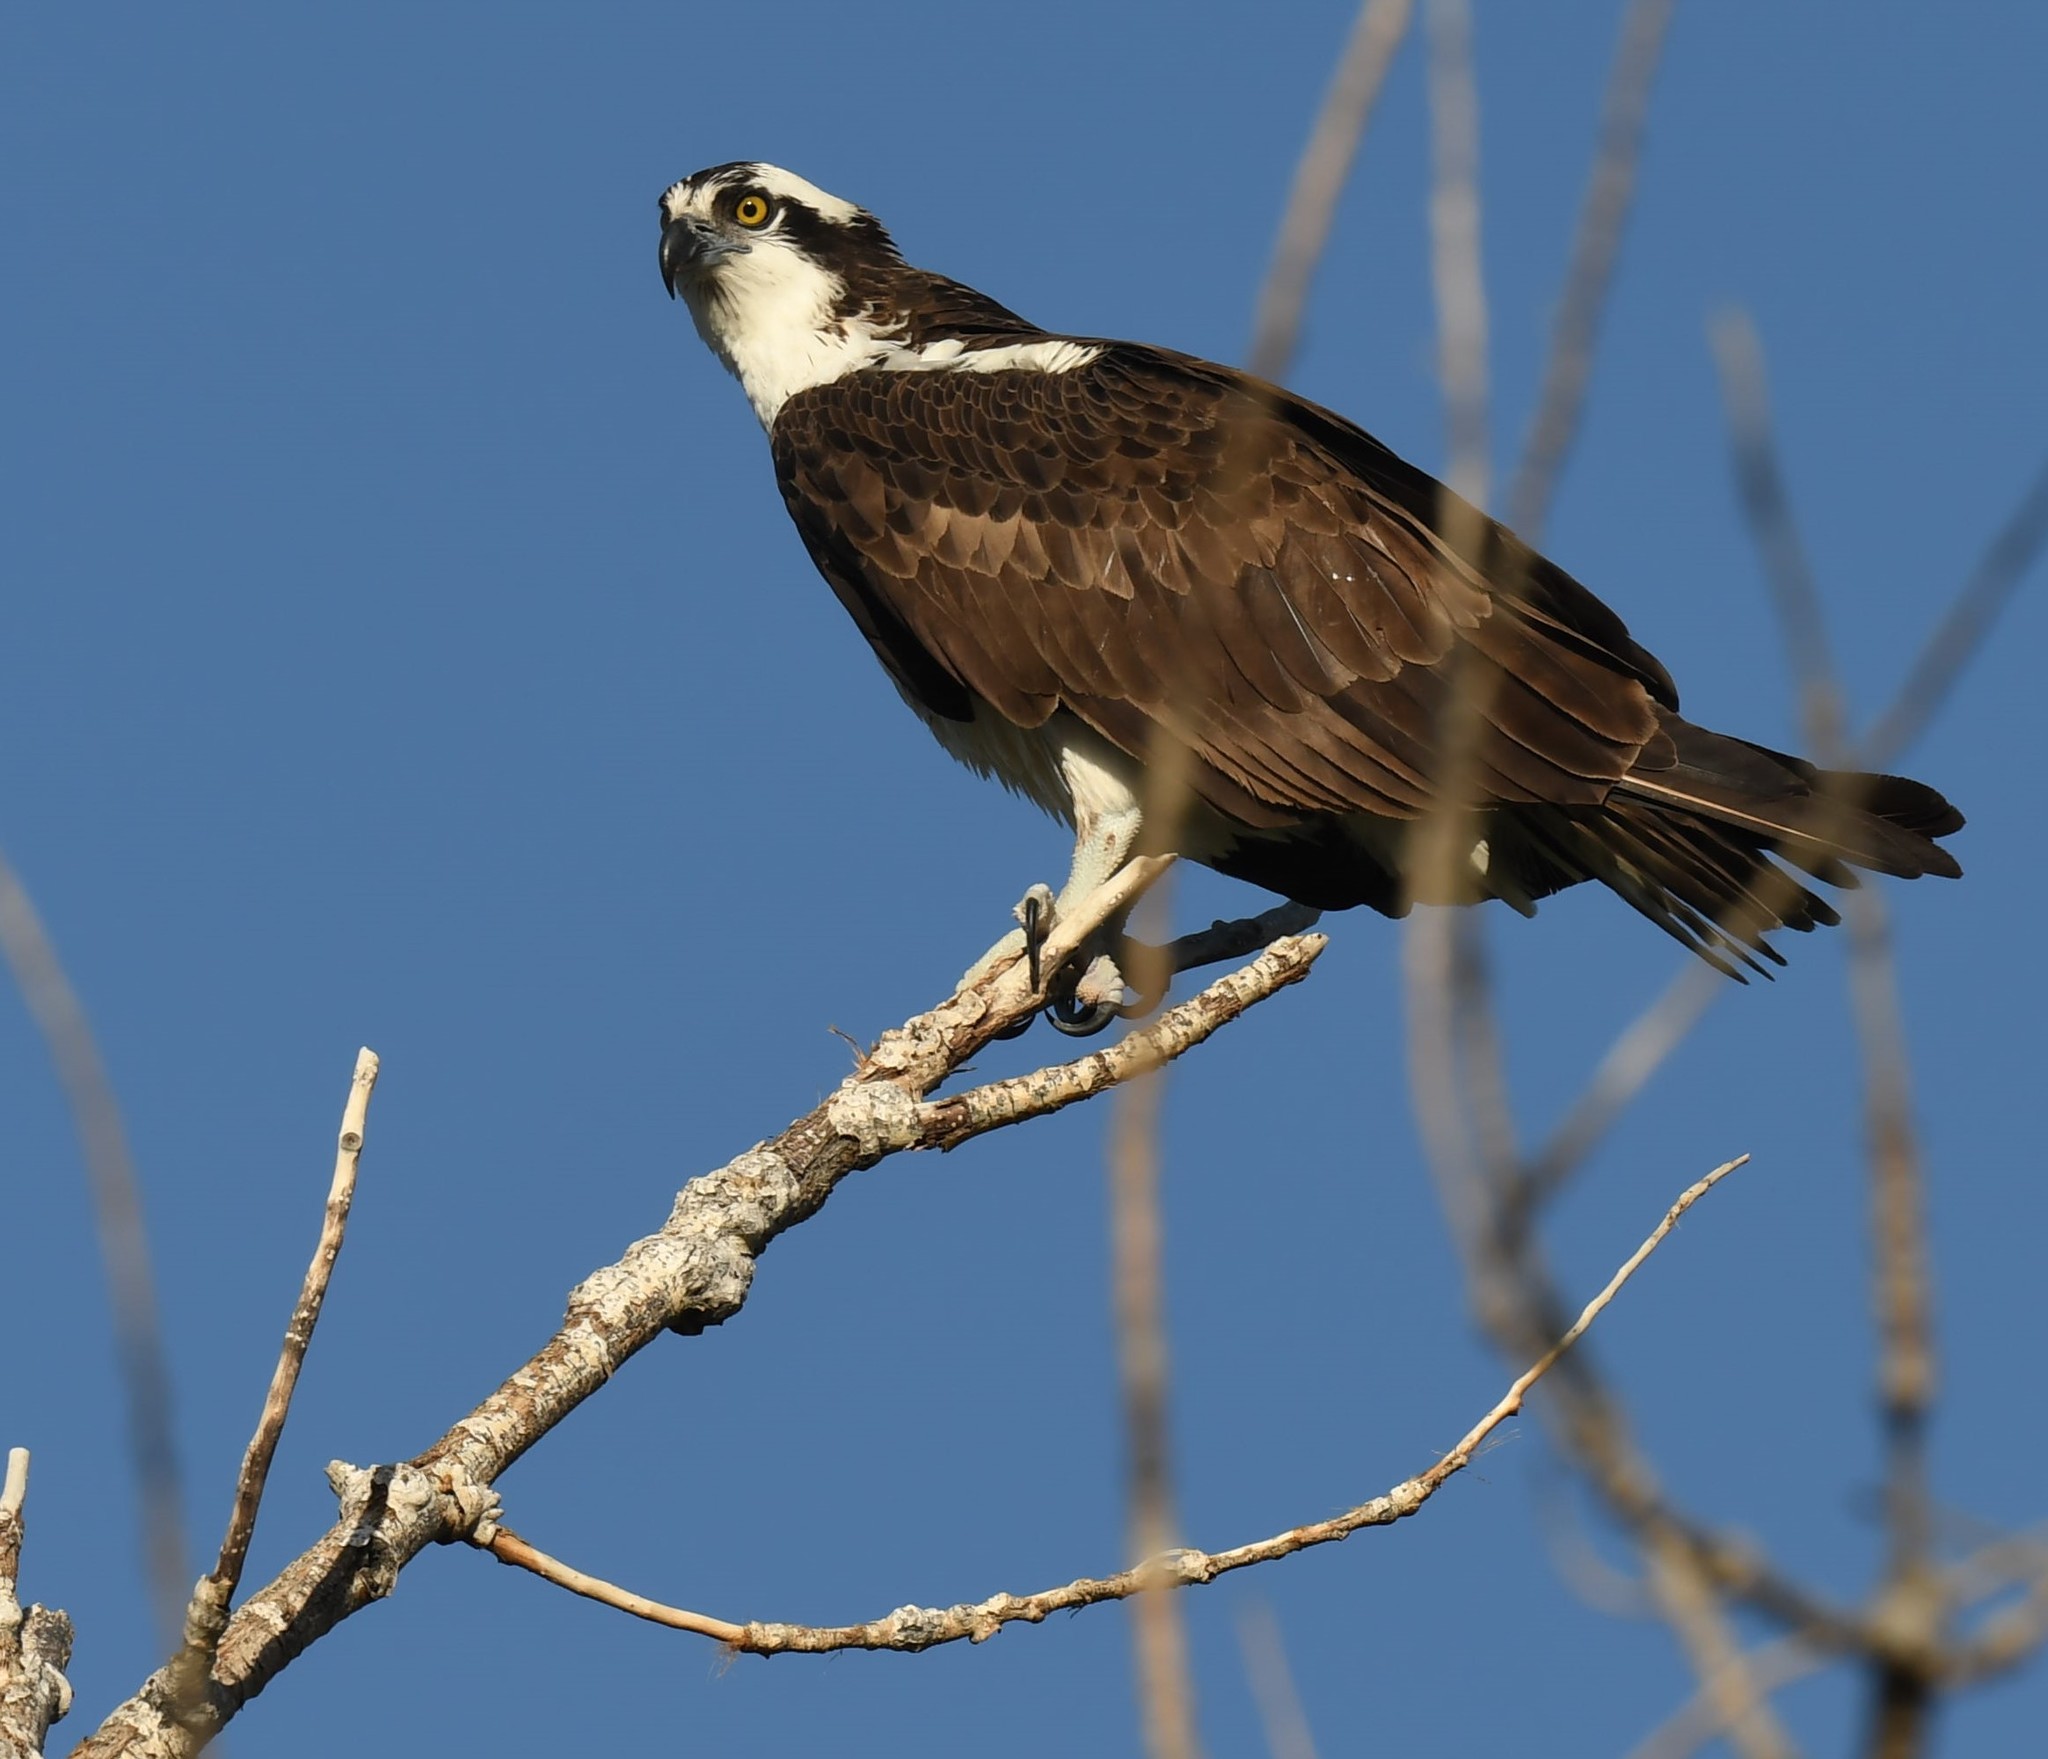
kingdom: Animalia
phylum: Chordata
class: Aves
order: Accipitriformes
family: Pandionidae
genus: Pandion
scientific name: Pandion haliaetus
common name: Osprey
